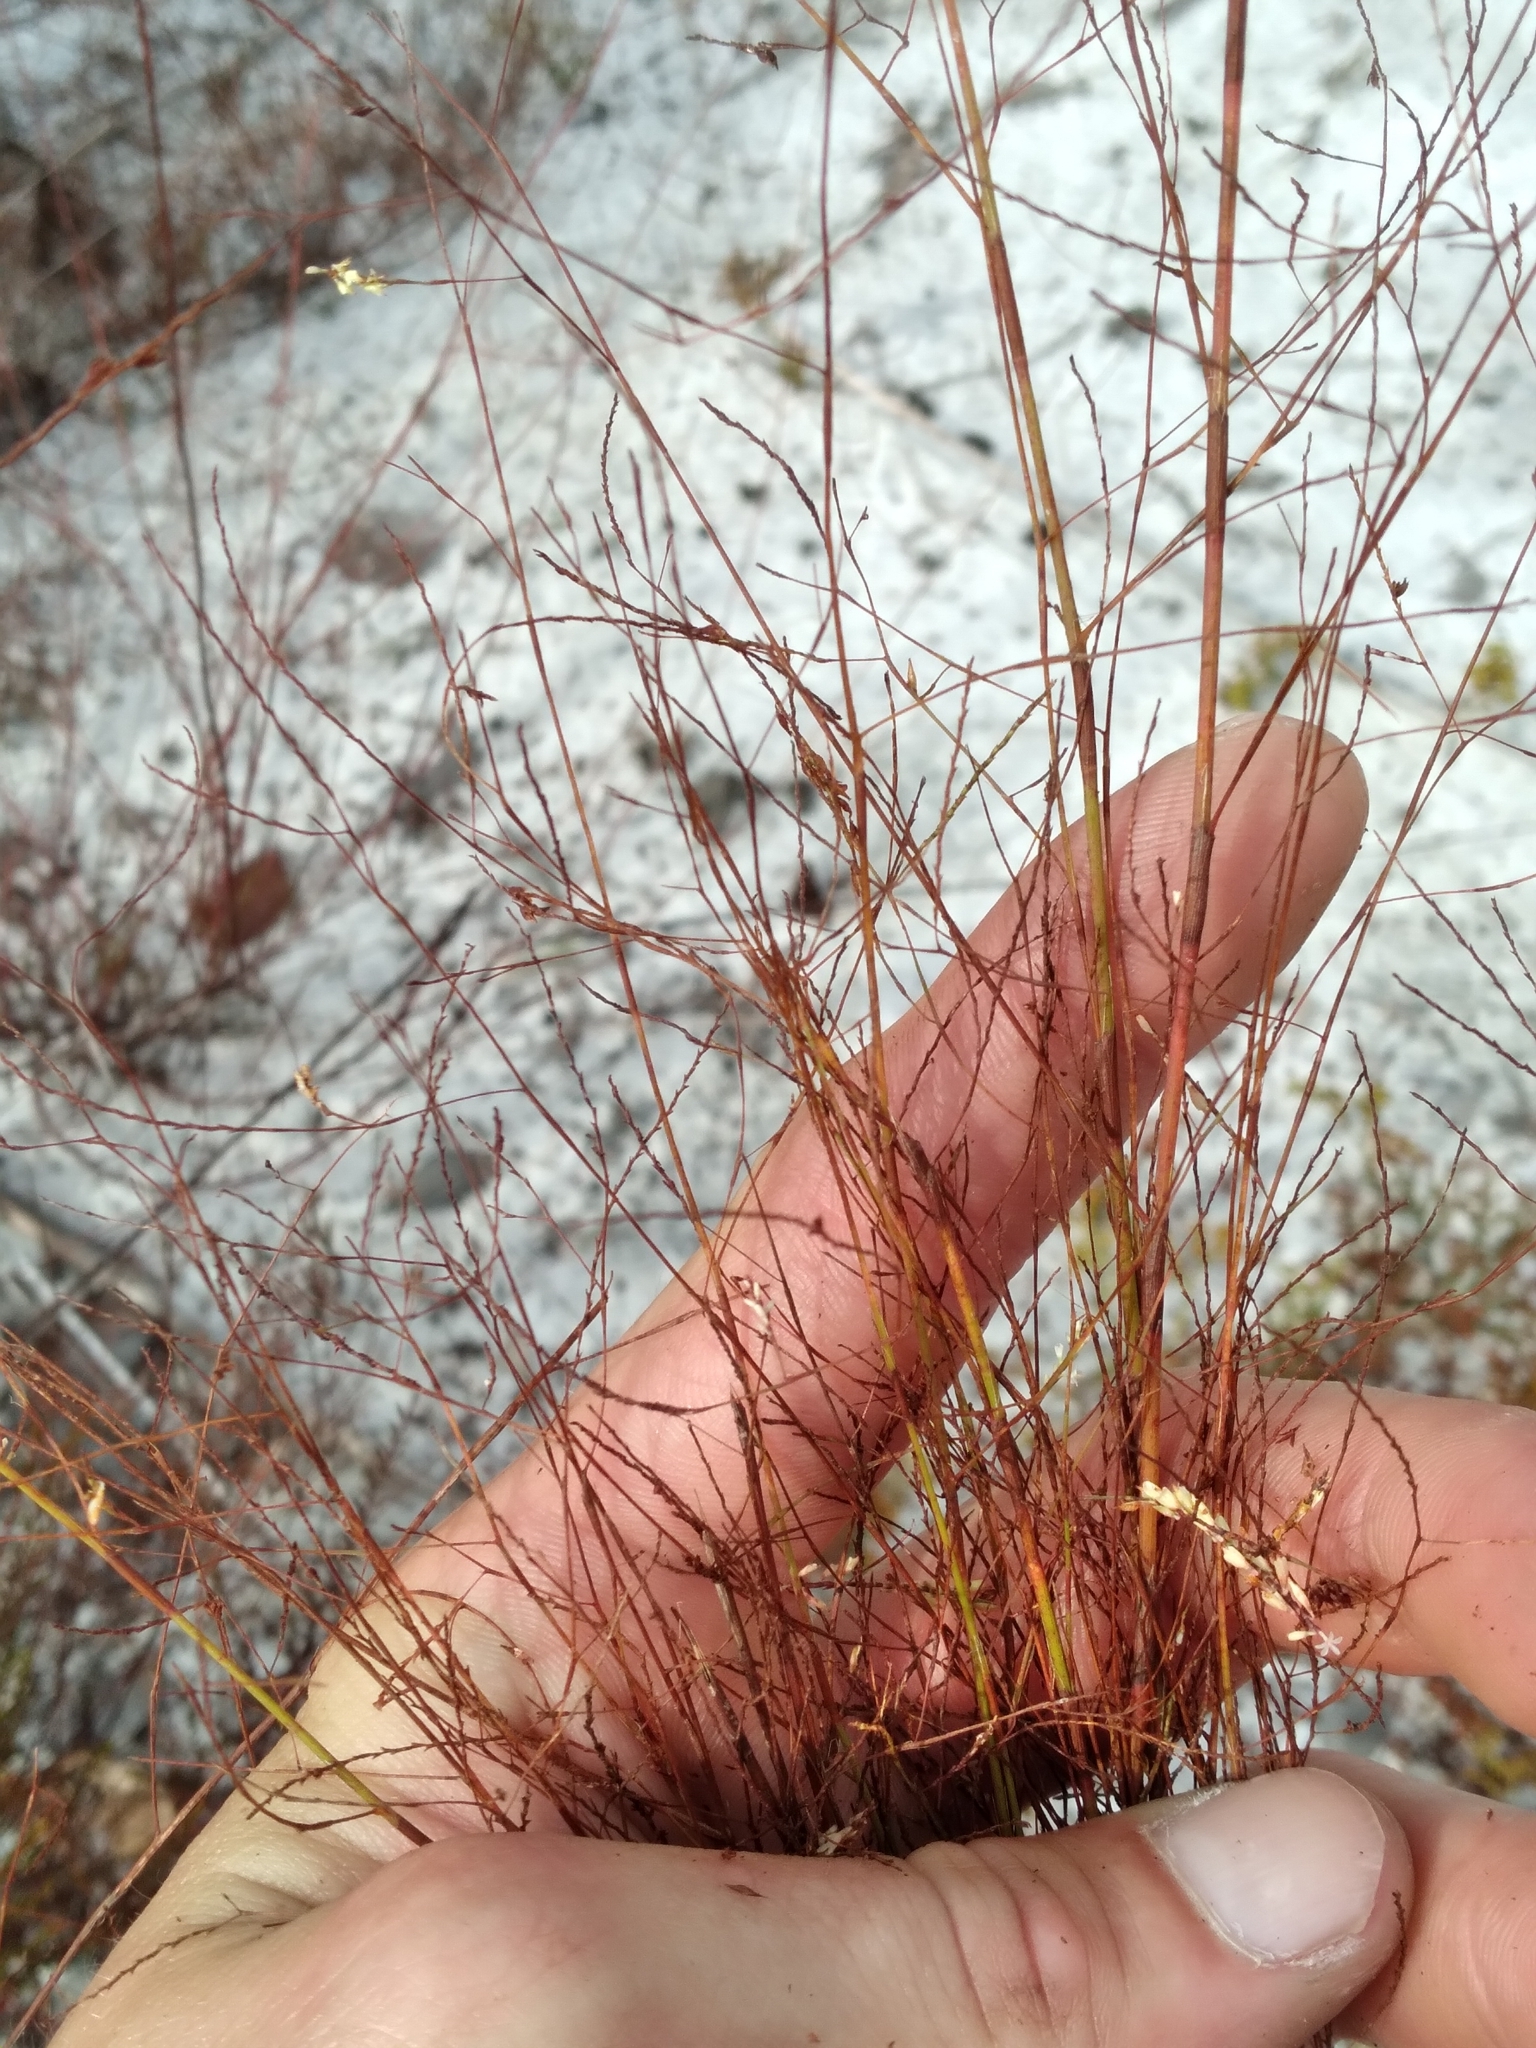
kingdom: Plantae
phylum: Tracheophyta
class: Magnoliopsida
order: Caryophyllales
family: Polygonaceae
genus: Polygonella
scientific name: Polygonella basiramia
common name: Hairy wireweed
